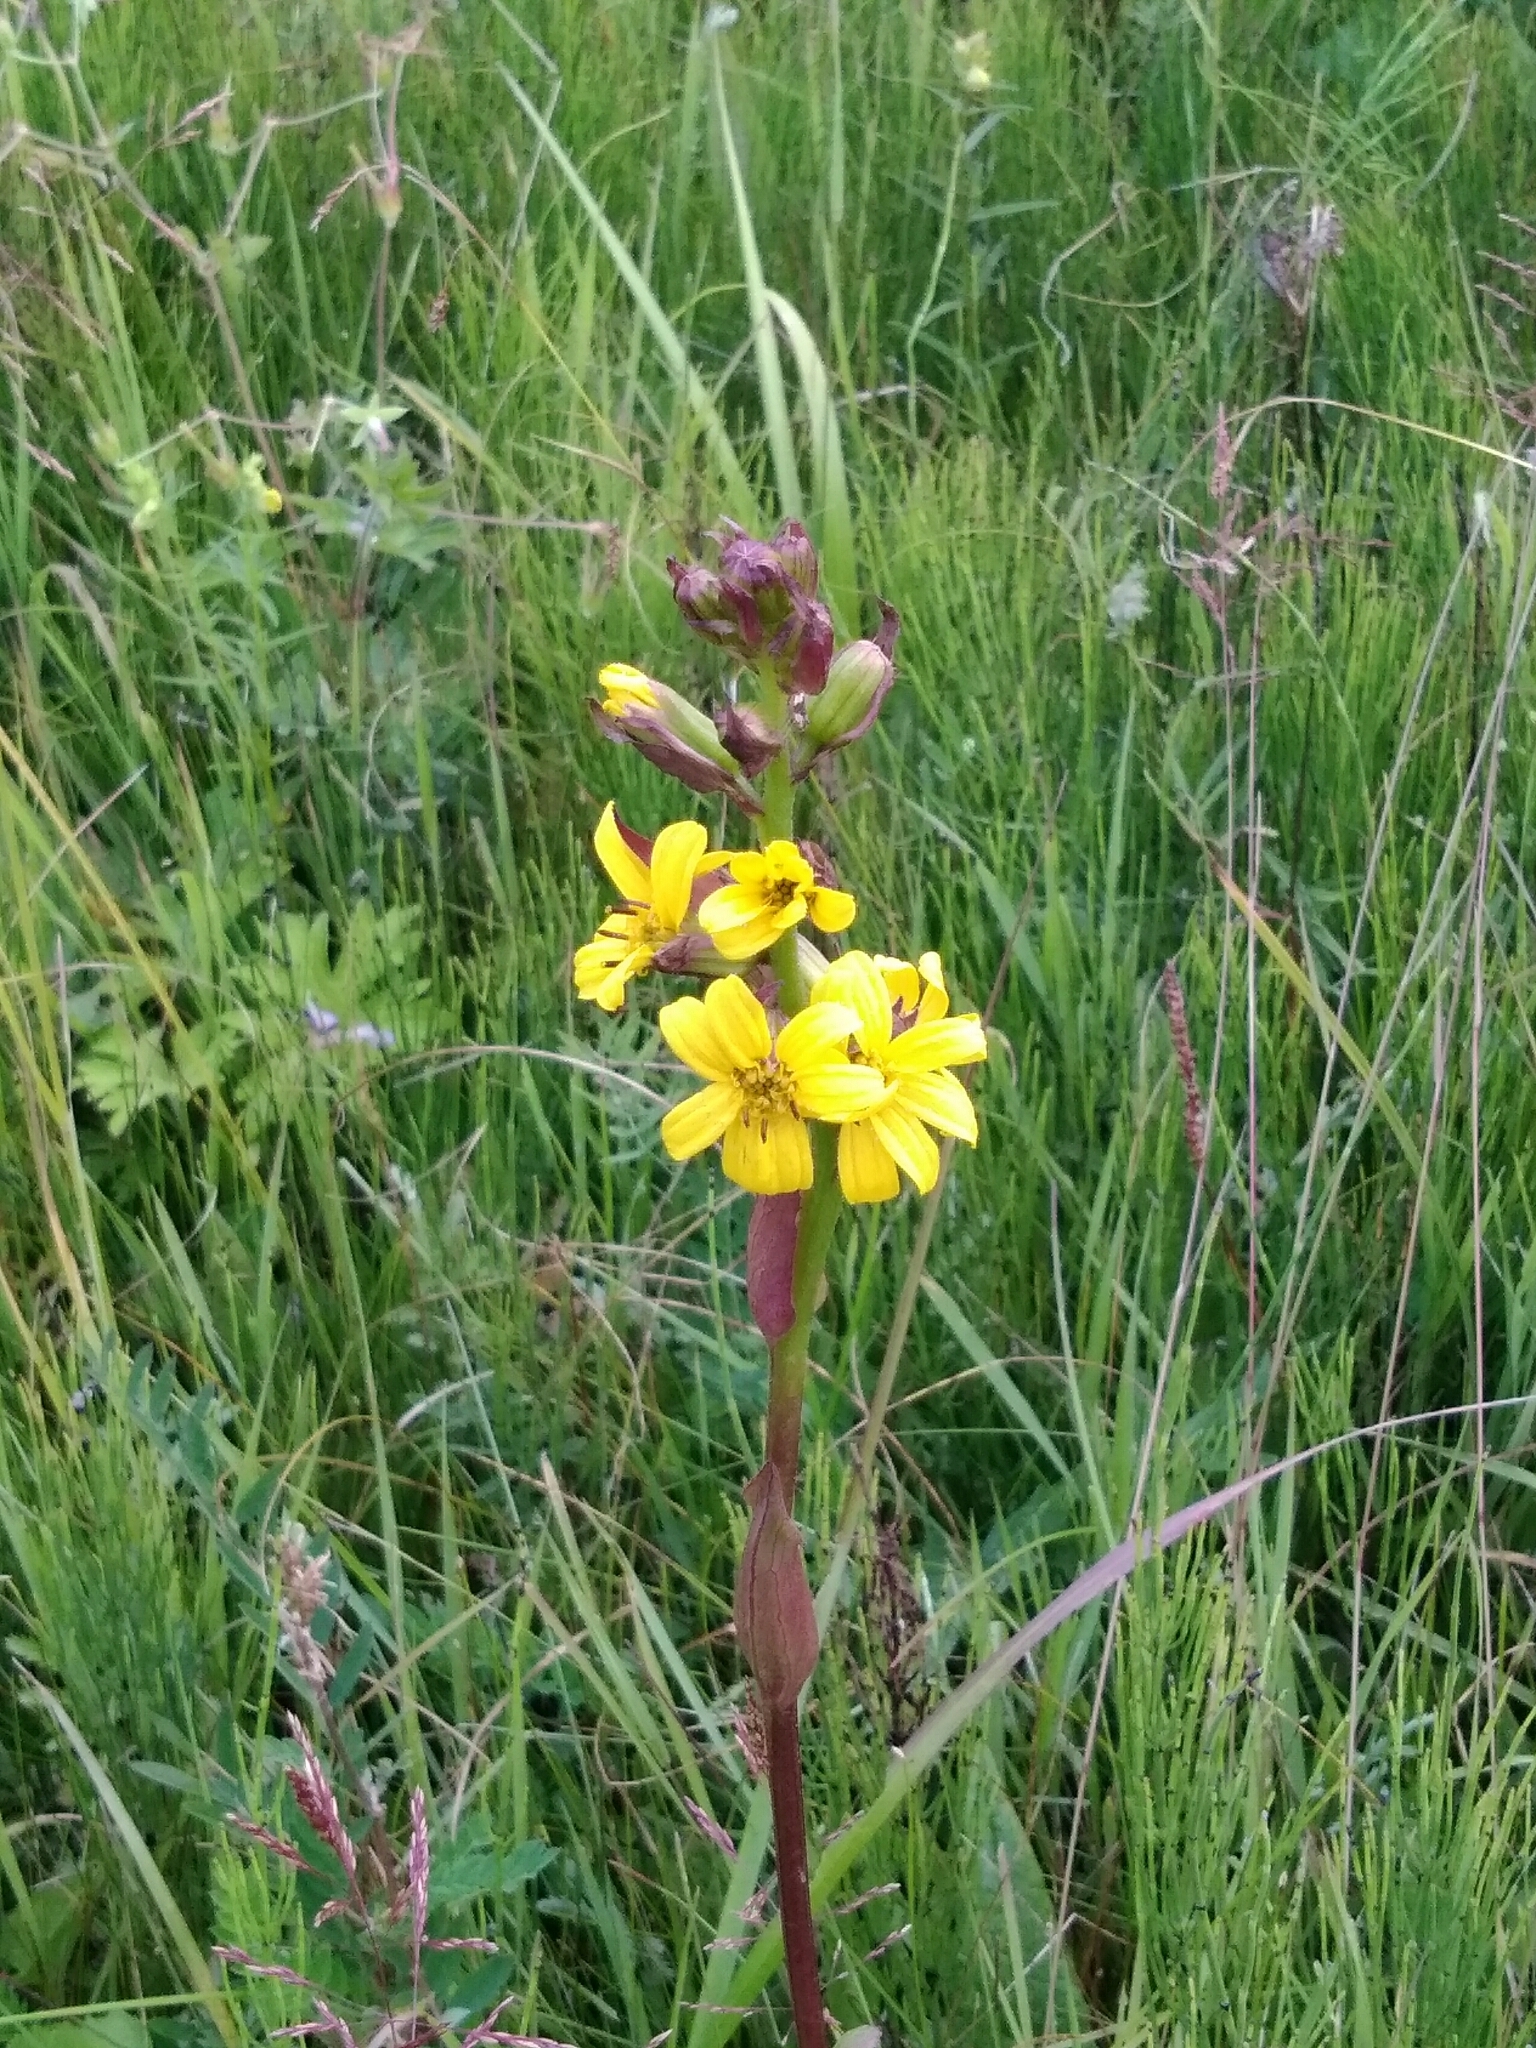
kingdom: Plantae
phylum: Tracheophyta
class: Magnoliopsida
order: Asterales
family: Asteraceae
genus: Ligularia
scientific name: Ligularia sibirica
